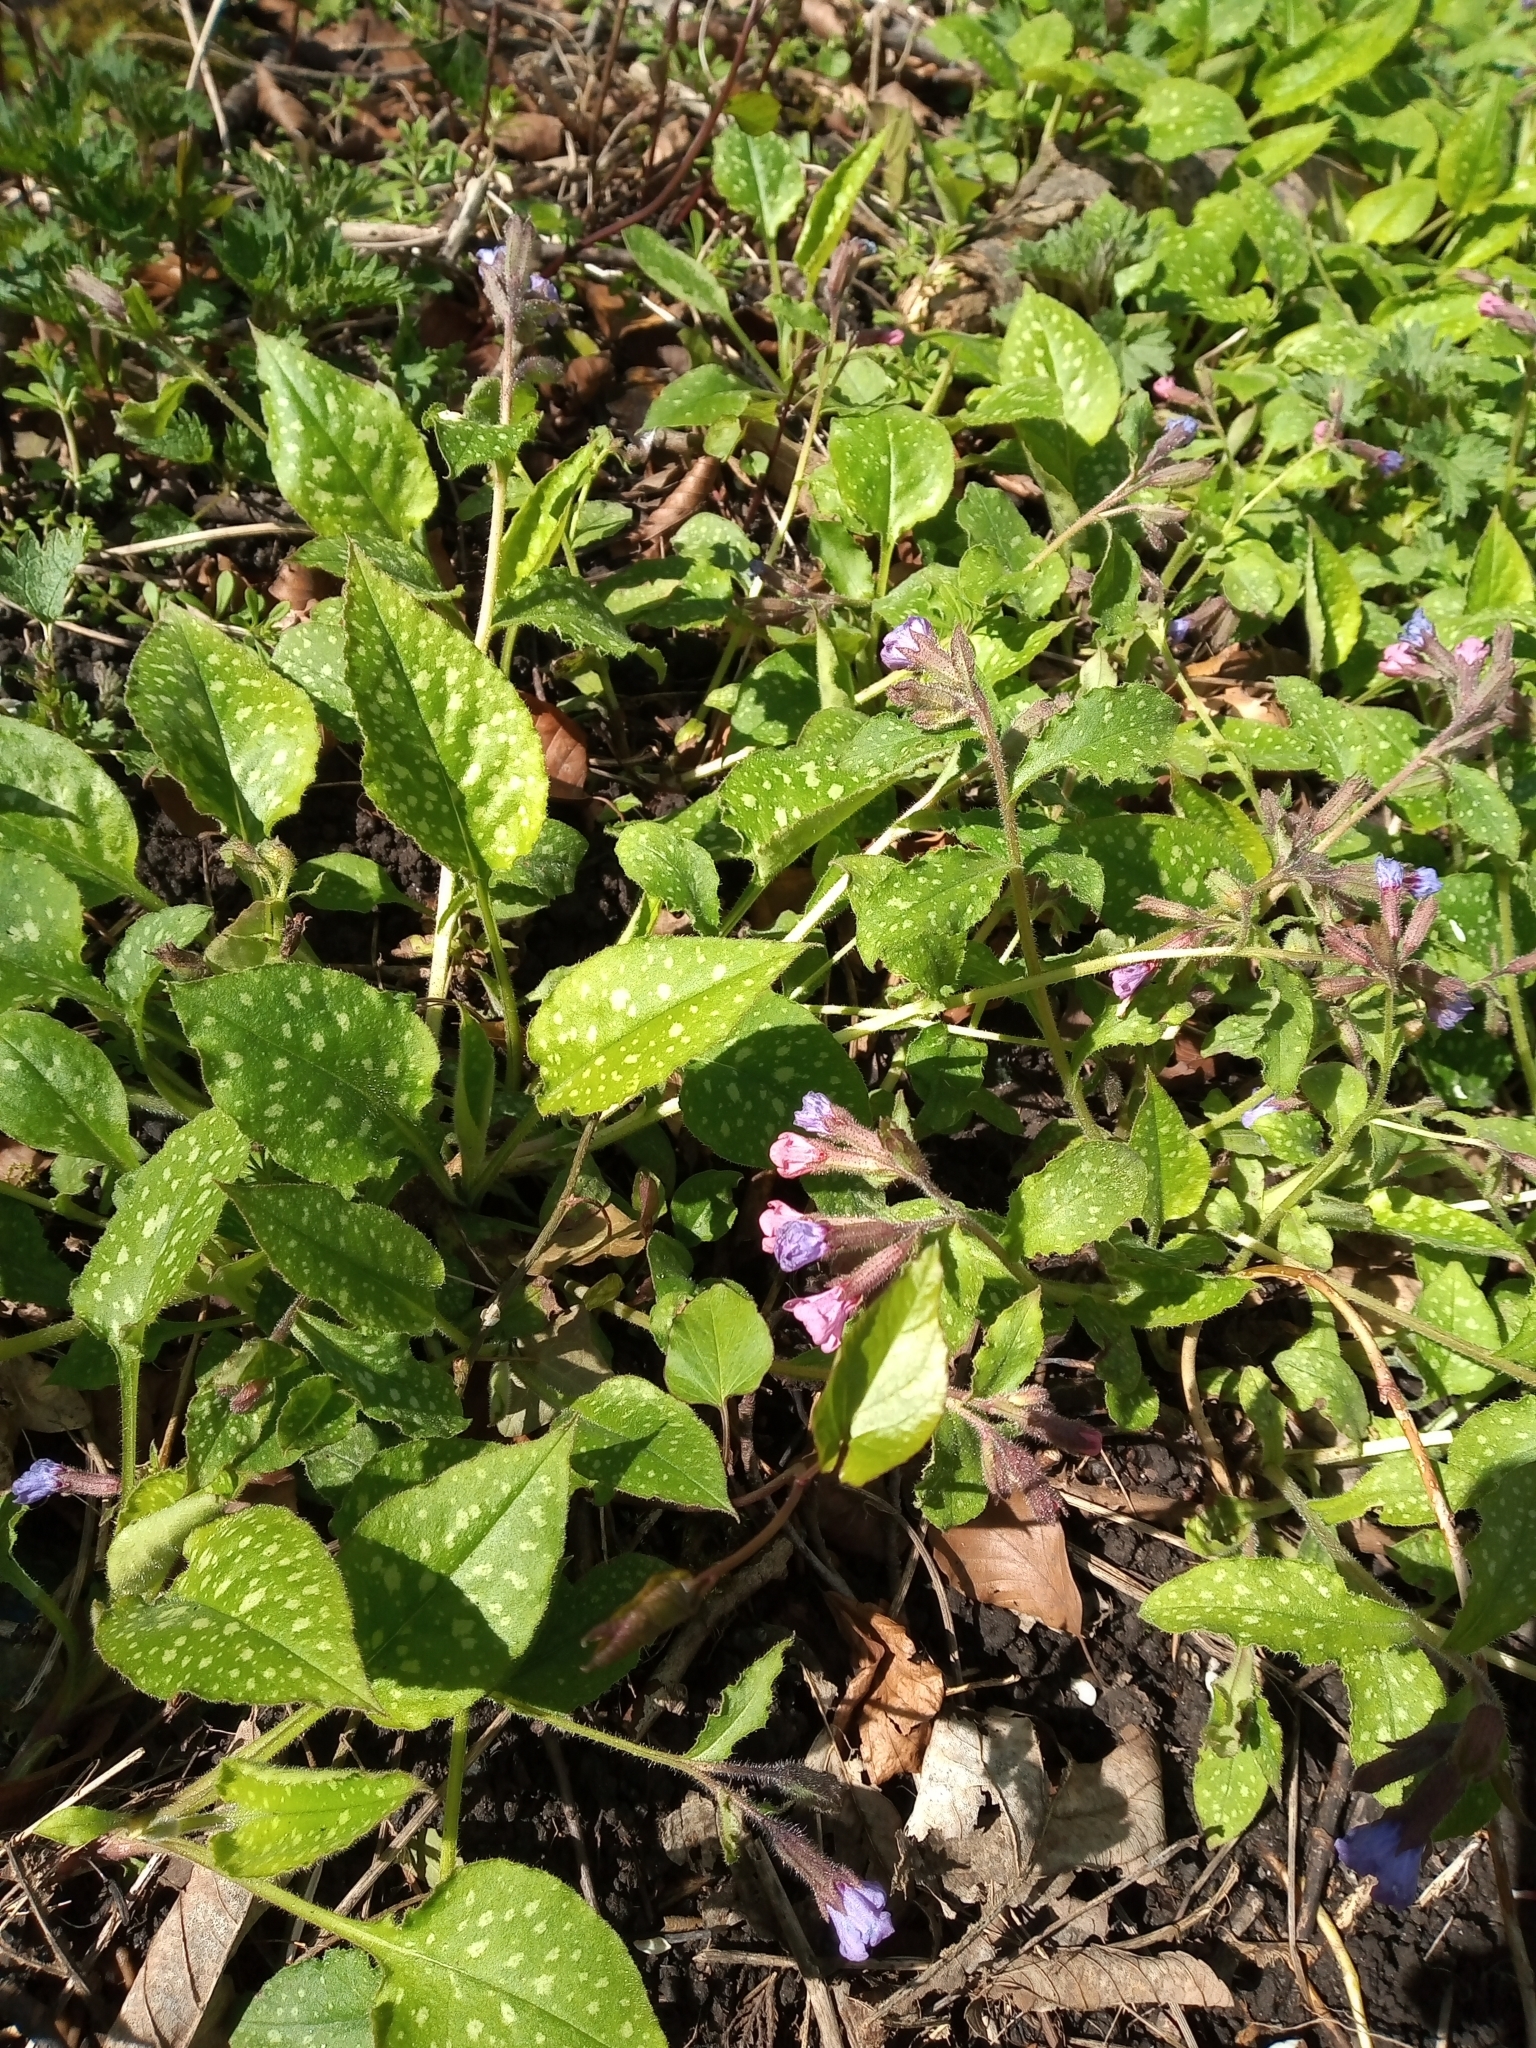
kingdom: Plantae
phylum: Tracheophyta
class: Magnoliopsida
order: Boraginales
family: Boraginaceae
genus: Pulmonaria
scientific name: Pulmonaria officinalis
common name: Lungwort
